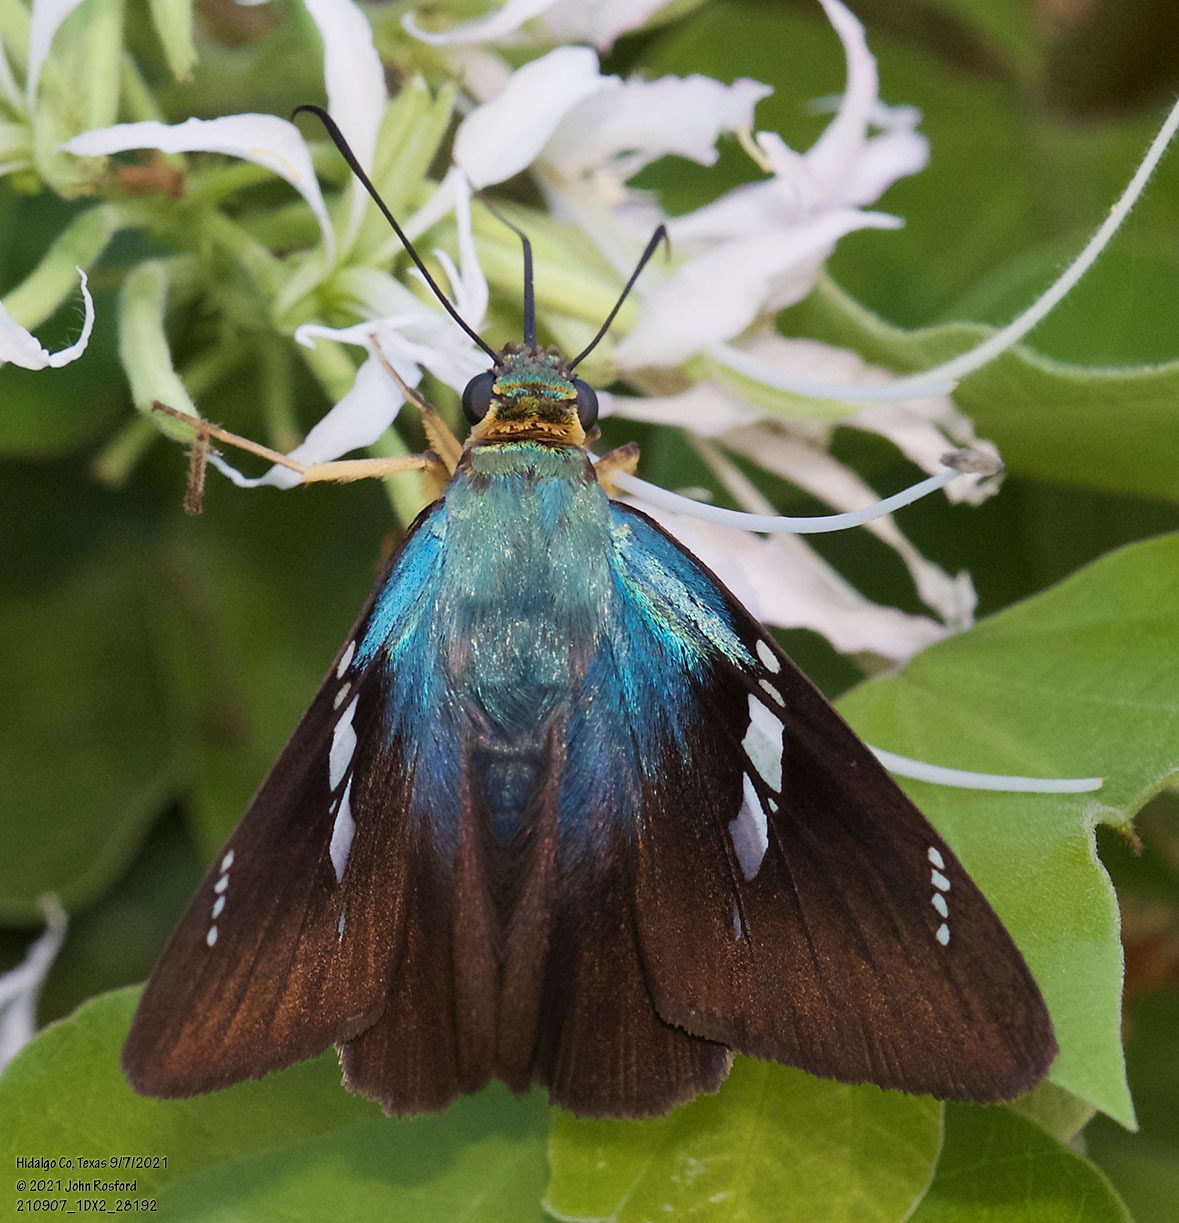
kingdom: Animalia
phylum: Arthropoda
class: Insecta
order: Lepidoptera
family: Hesperiidae
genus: Astraptes
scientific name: Astraptes fulgerator
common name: Two-barred flasher
